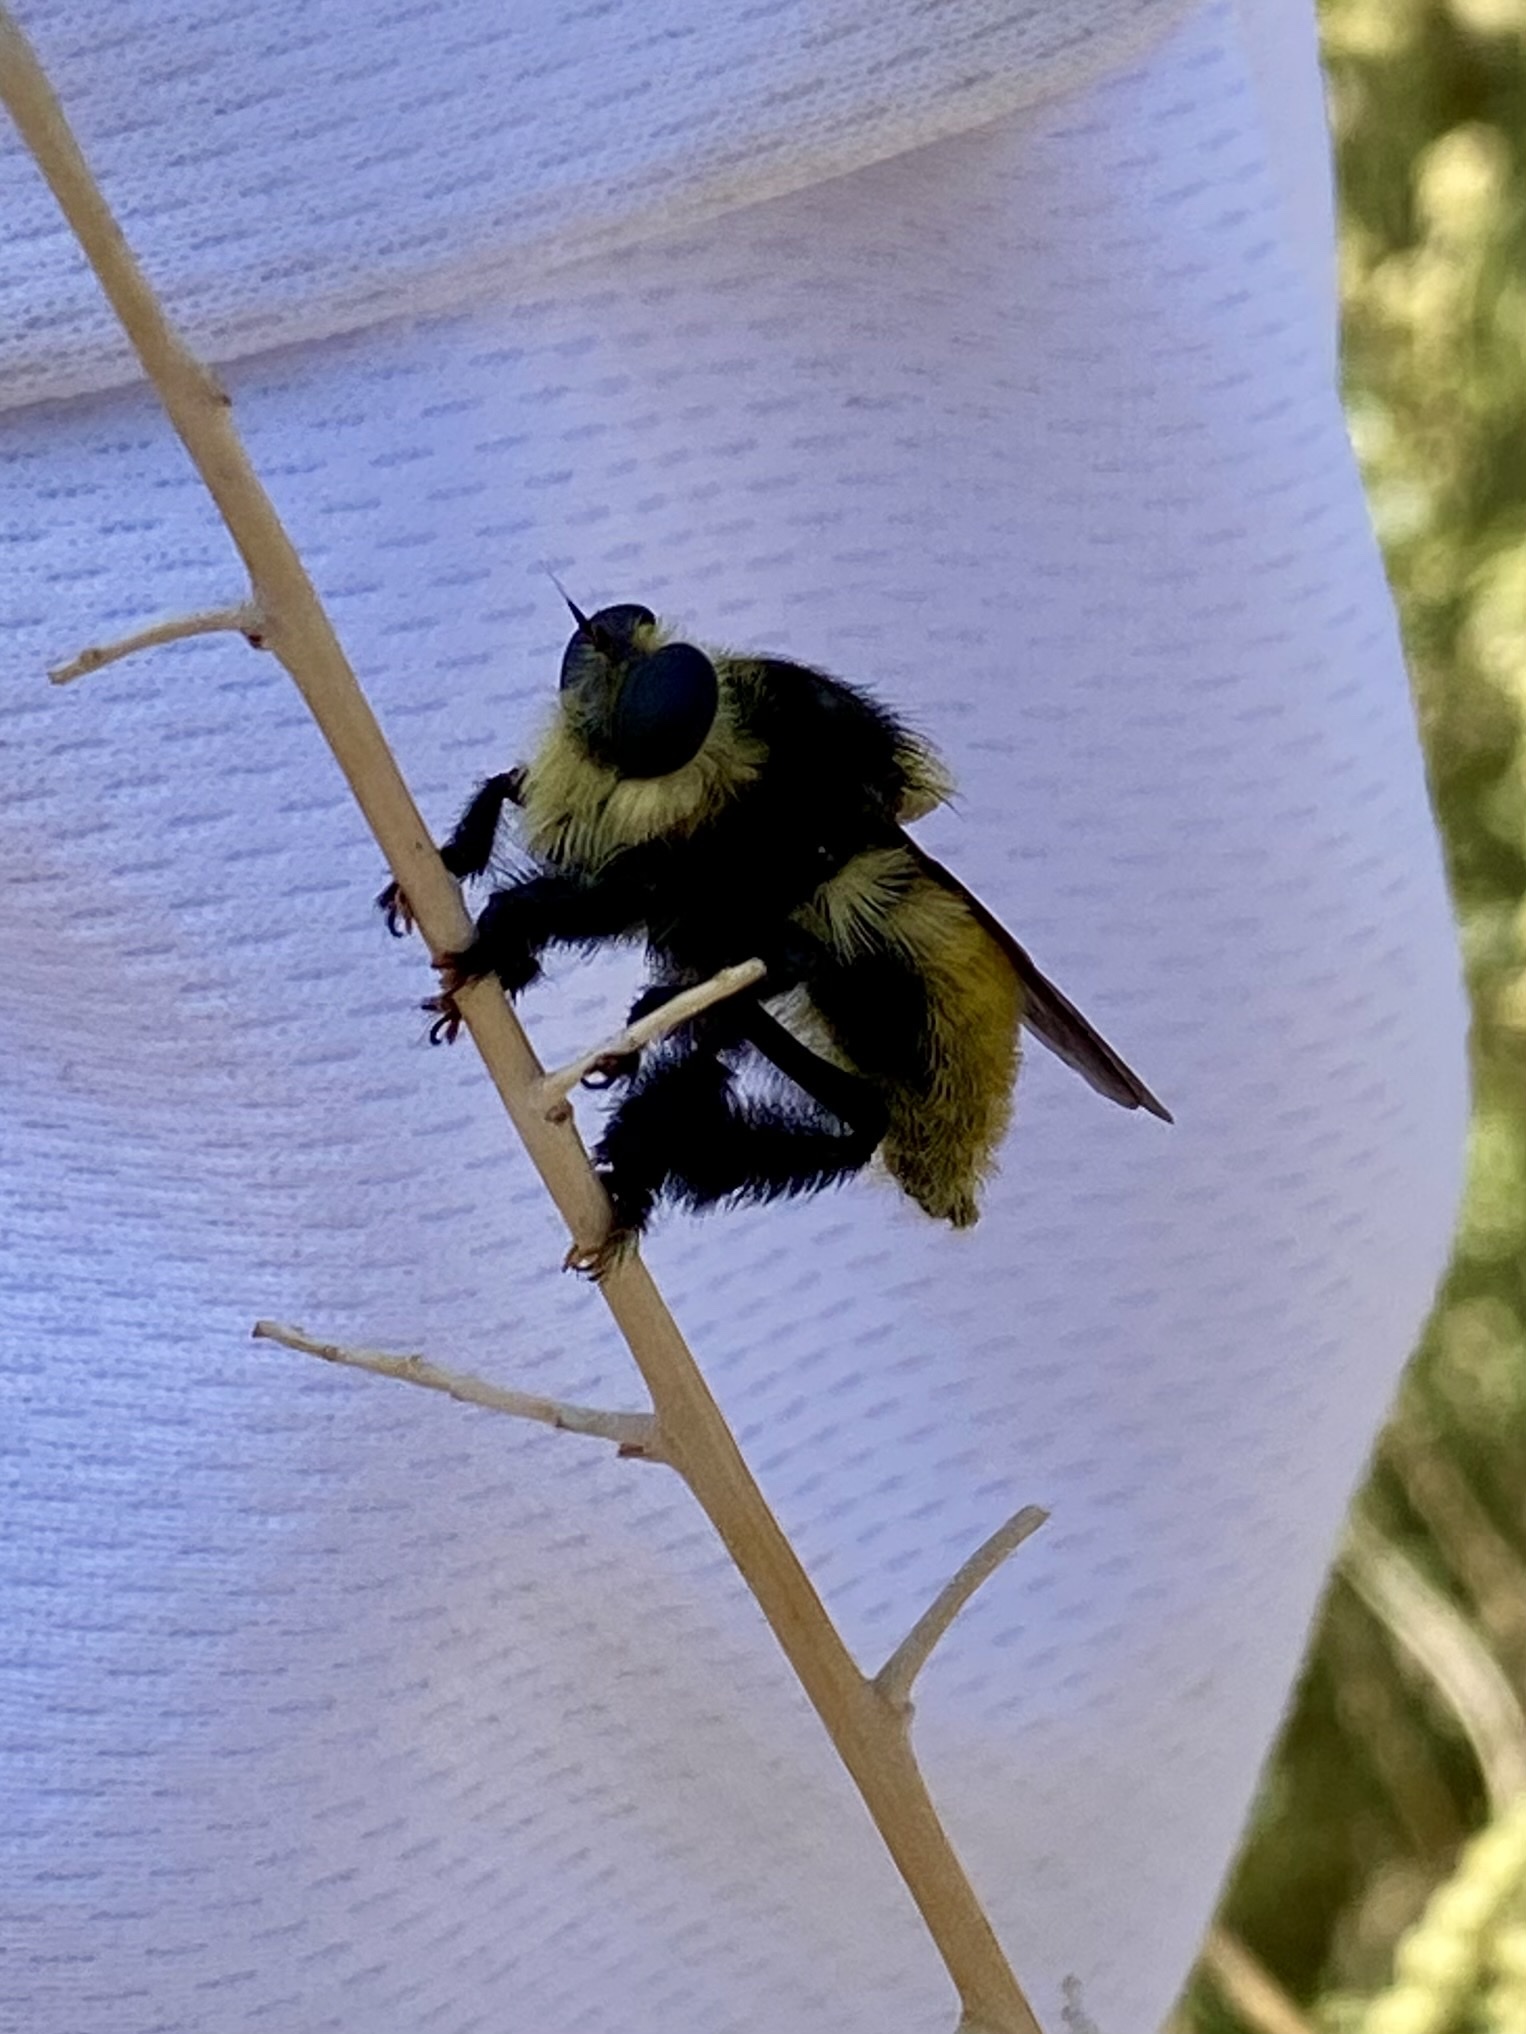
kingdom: Animalia
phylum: Arthropoda
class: Insecta
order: Diptera
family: Asilidae
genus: Mallophora
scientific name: Mallophora fautrix
